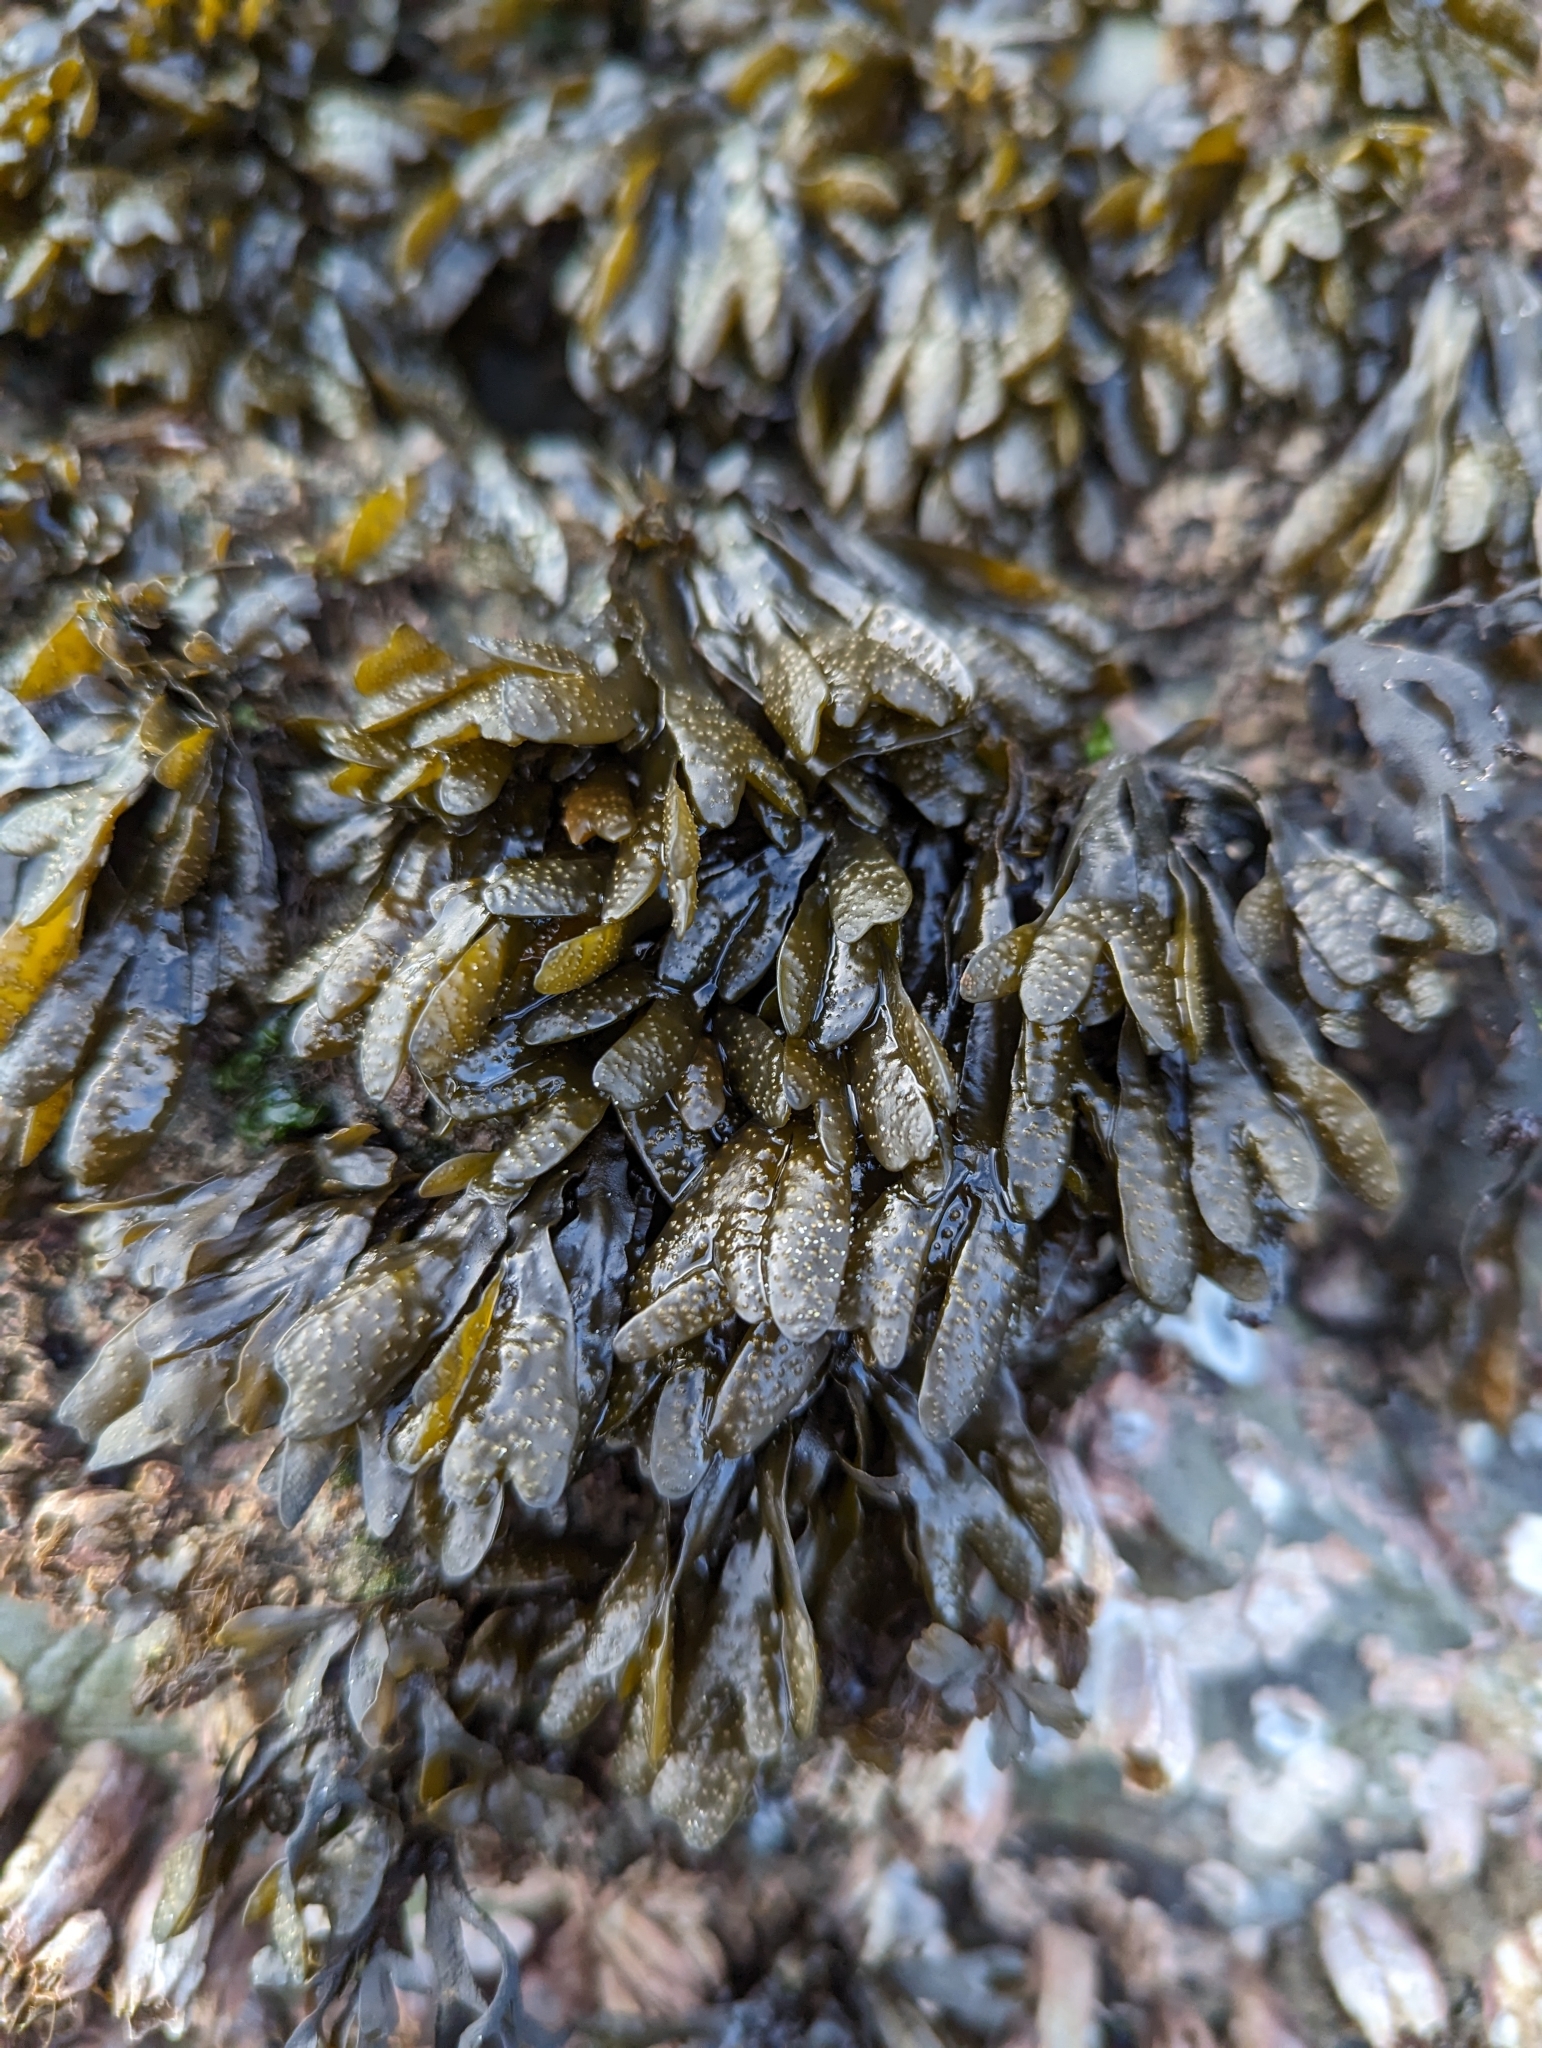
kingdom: Chromista
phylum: Ochrophyta
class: Phaeophyceae
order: Fucales
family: Fucaceae
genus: Pelvetiopsis
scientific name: Pelvetiopsis limitata
